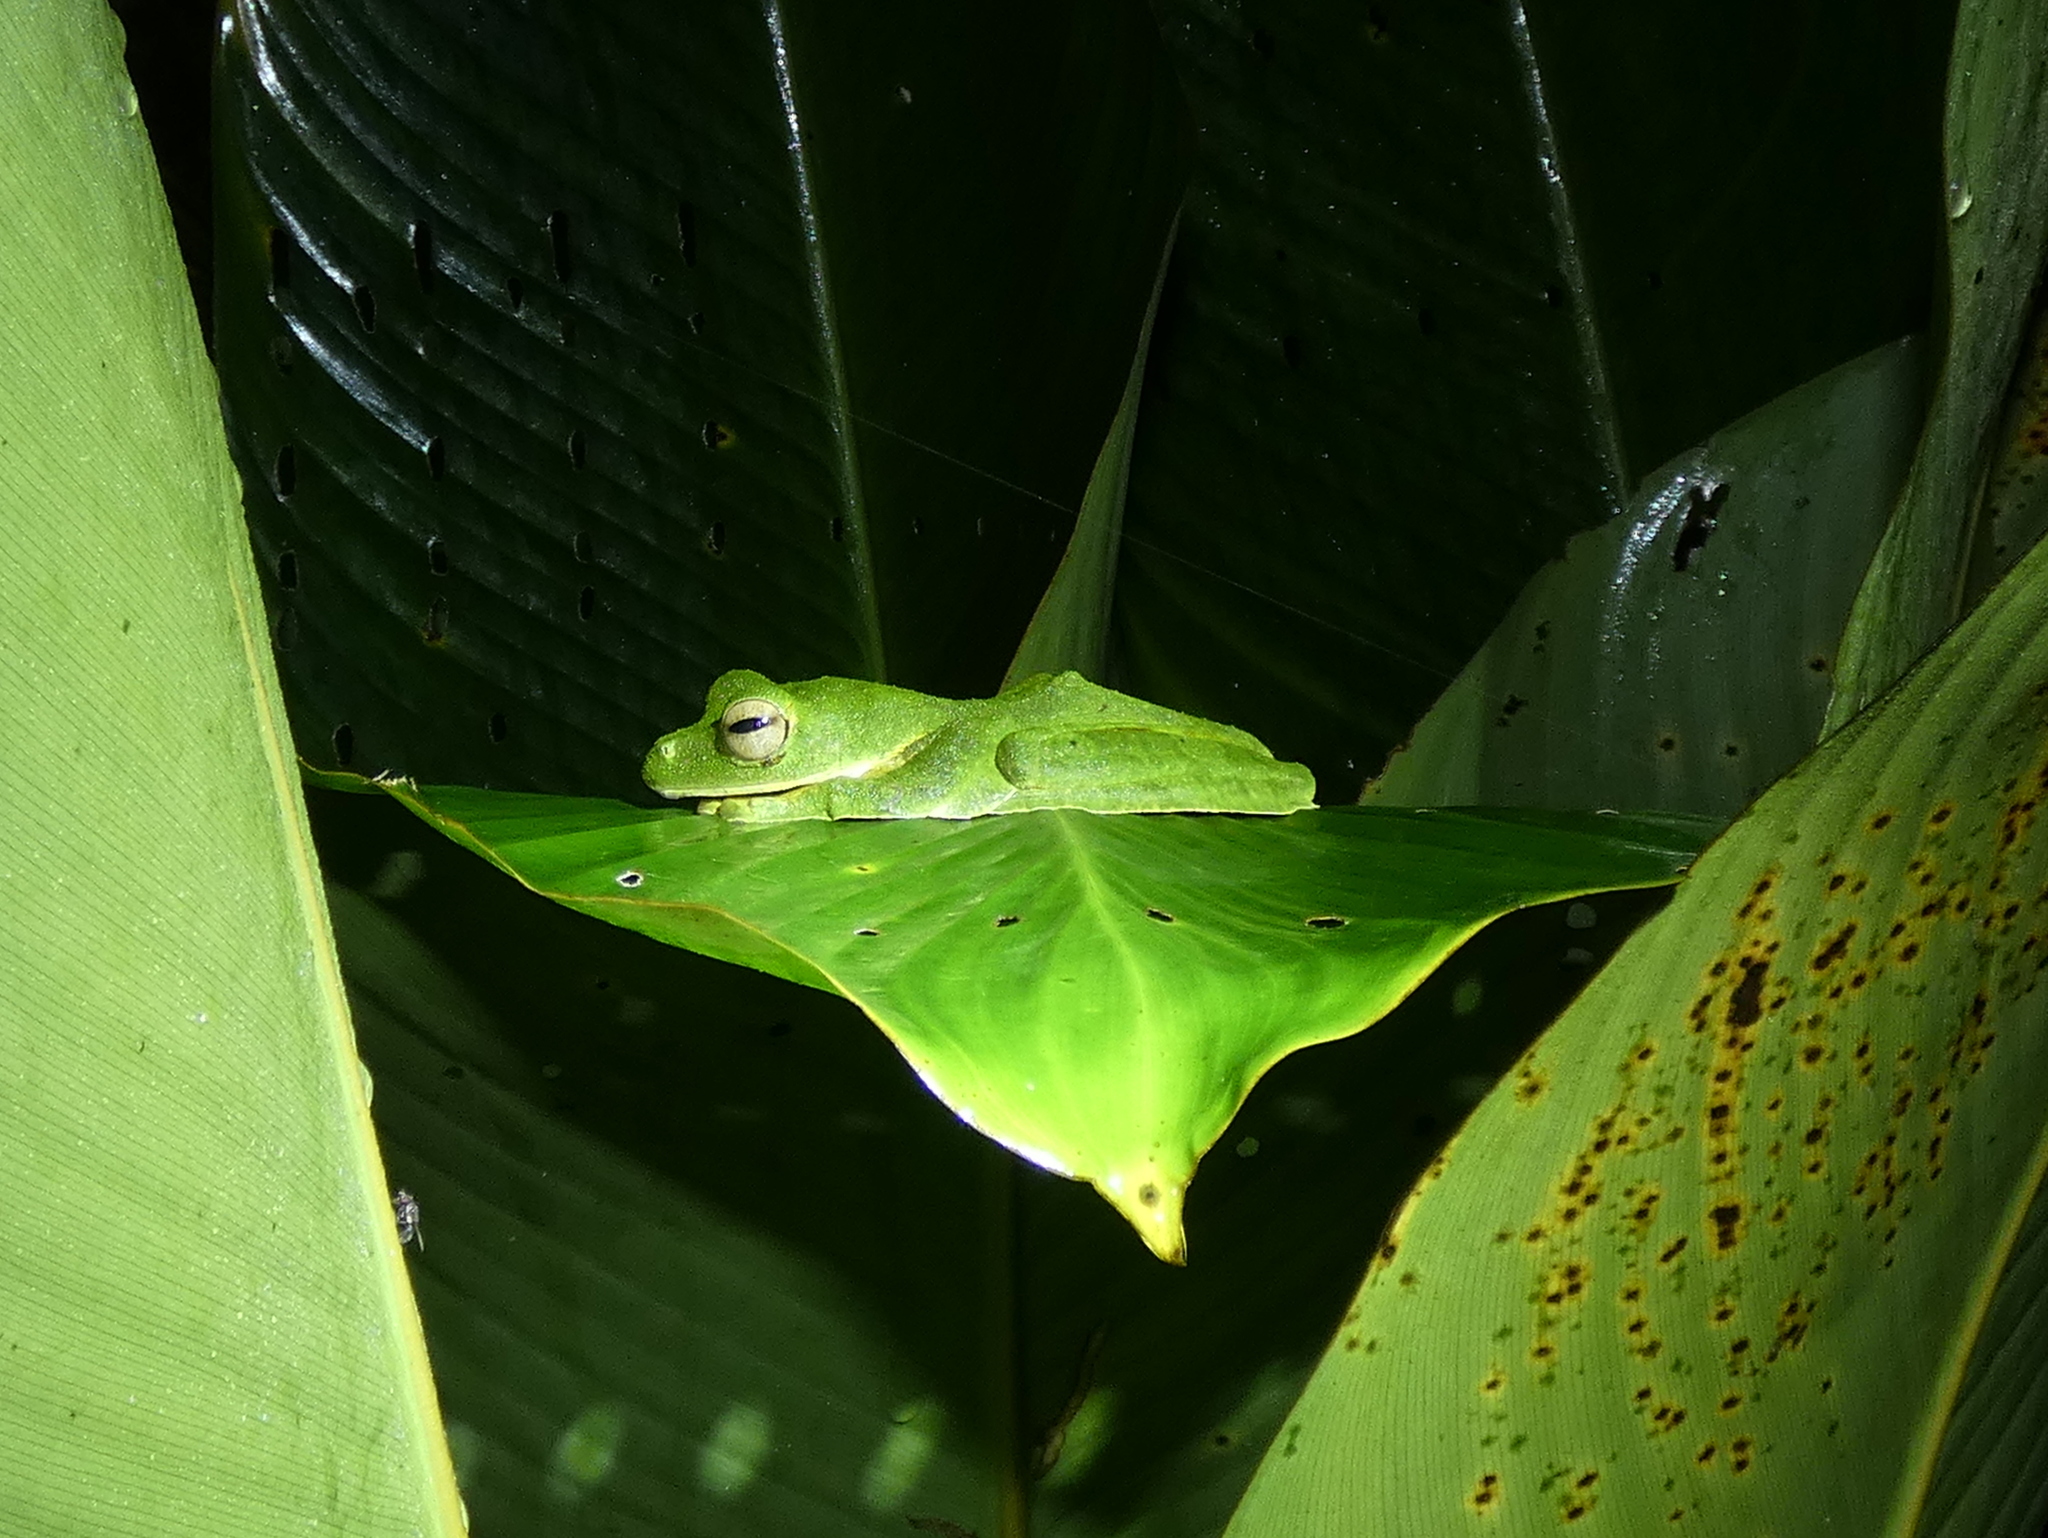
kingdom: Animalia
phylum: Chordata
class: Amphibia
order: Anura
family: Rhacophoridae
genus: Rhacophorus
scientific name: Rhacophorus nigropalmatus
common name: Wallace’s flying frog
